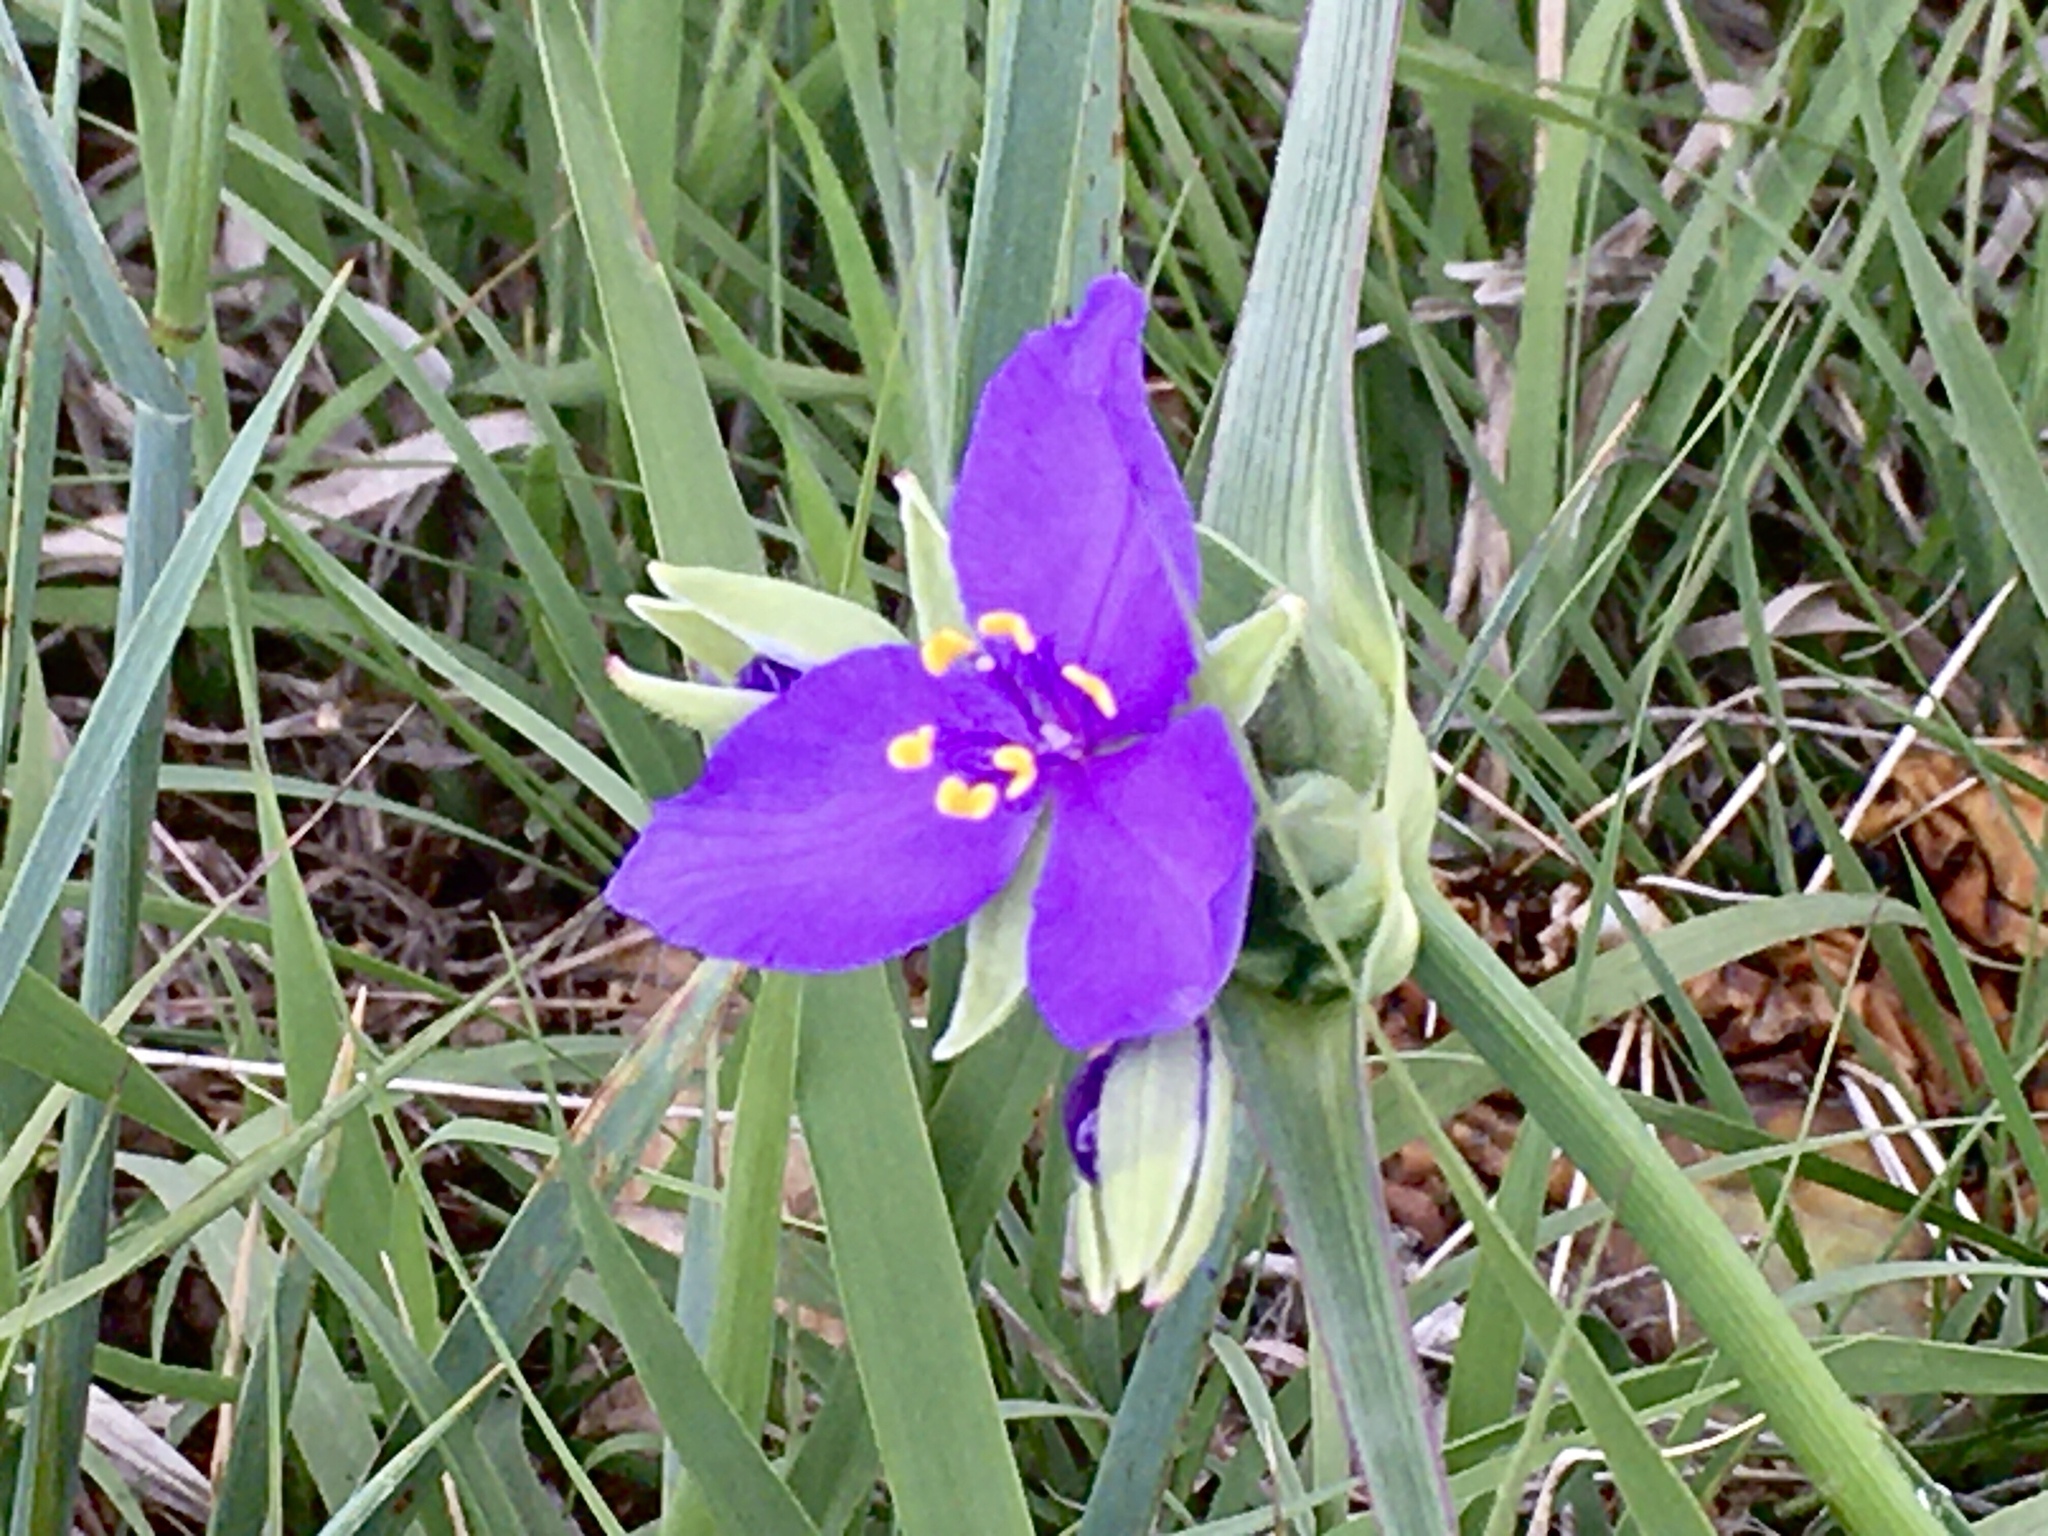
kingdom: Plantae
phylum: Tracheophyta
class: Liliopsida
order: Commelinales
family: Commelinaceae
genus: Tradescantia
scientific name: Tradescantia occidentalis
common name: Prairie spiderwort
